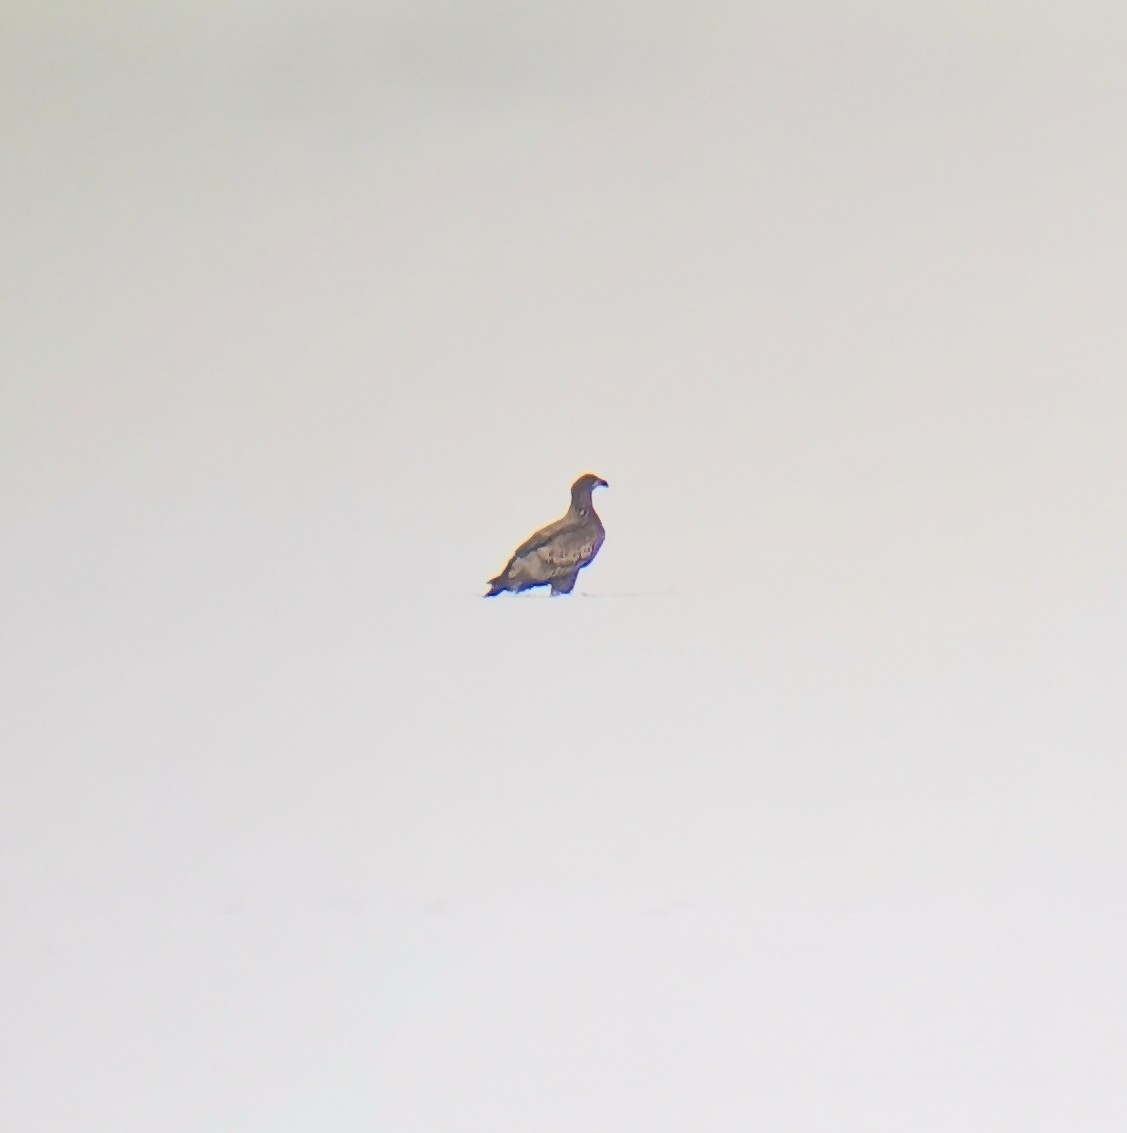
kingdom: Animalia
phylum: Chordata
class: Aves
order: Accipitriformes
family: Accipitridae
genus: Haliaeetus
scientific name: Haliaeetus albicilla
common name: White-tailed eagle
